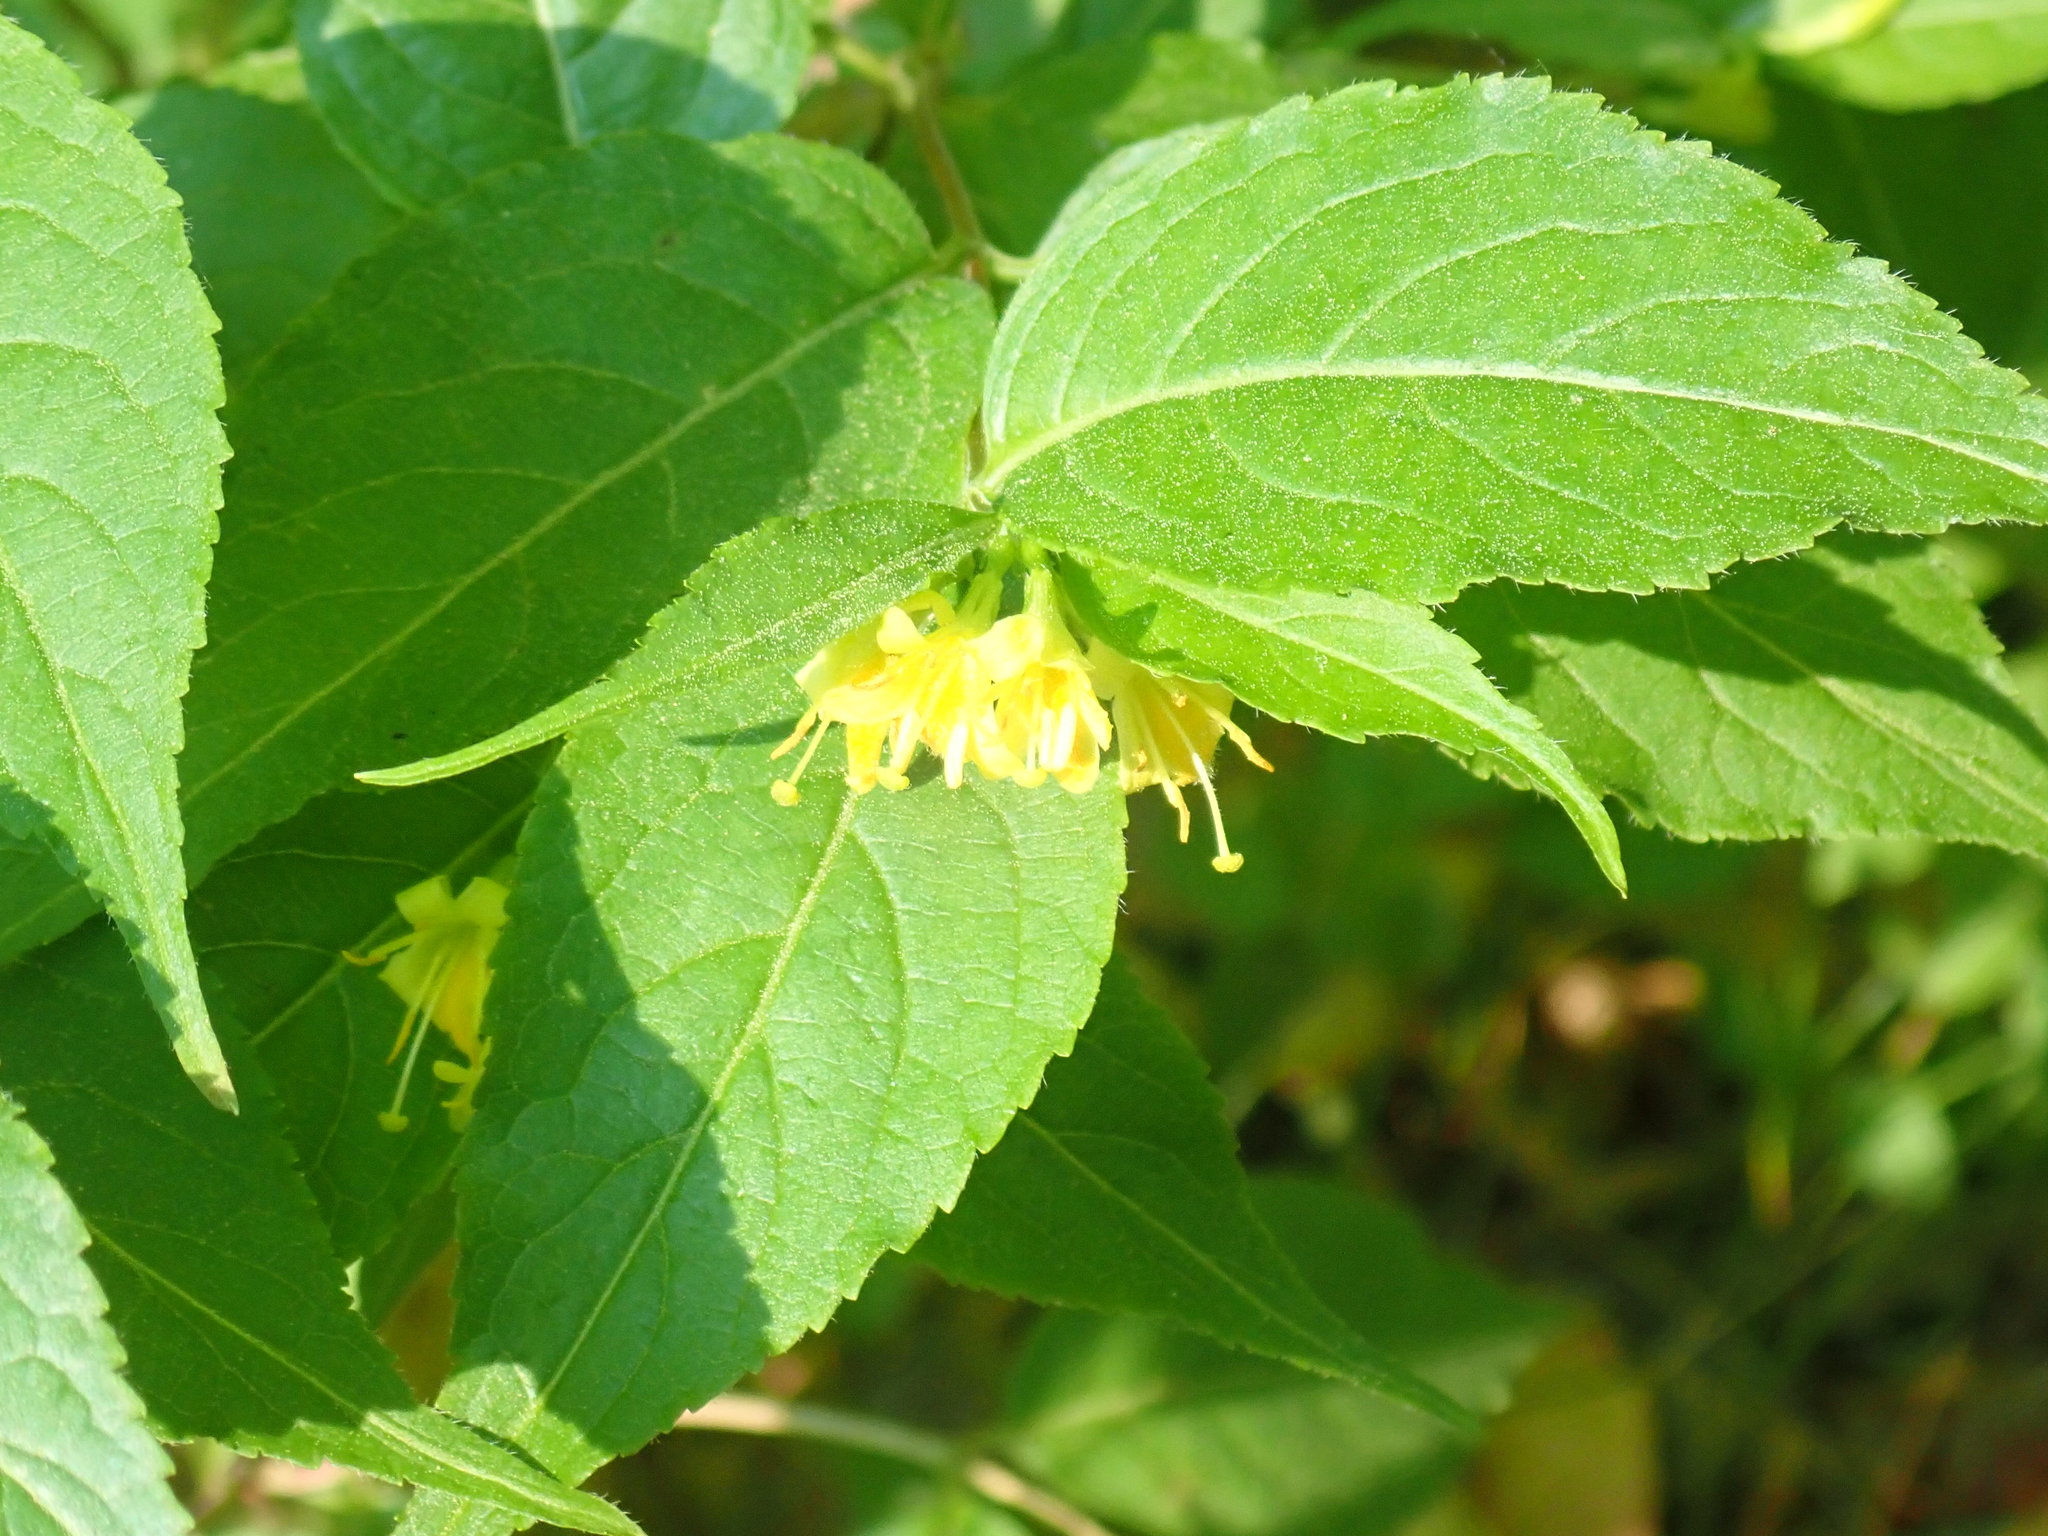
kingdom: Plantae
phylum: Tracheophyta
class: Magnoliopsida
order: Dipsacales
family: Caprifoliaceae
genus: Diervilla
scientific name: Diervilla lonicera
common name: Bush-honeysuckle
